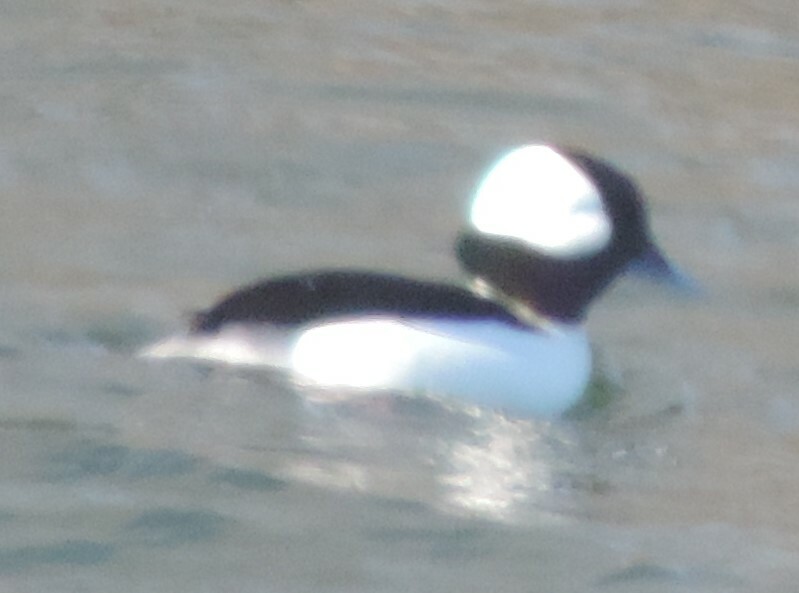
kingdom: Animalia
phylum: Chordata
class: Aves
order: Anseriformes
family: Anatidae
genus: Bucephala
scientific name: Bucephala albeola
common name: Bufflehead
